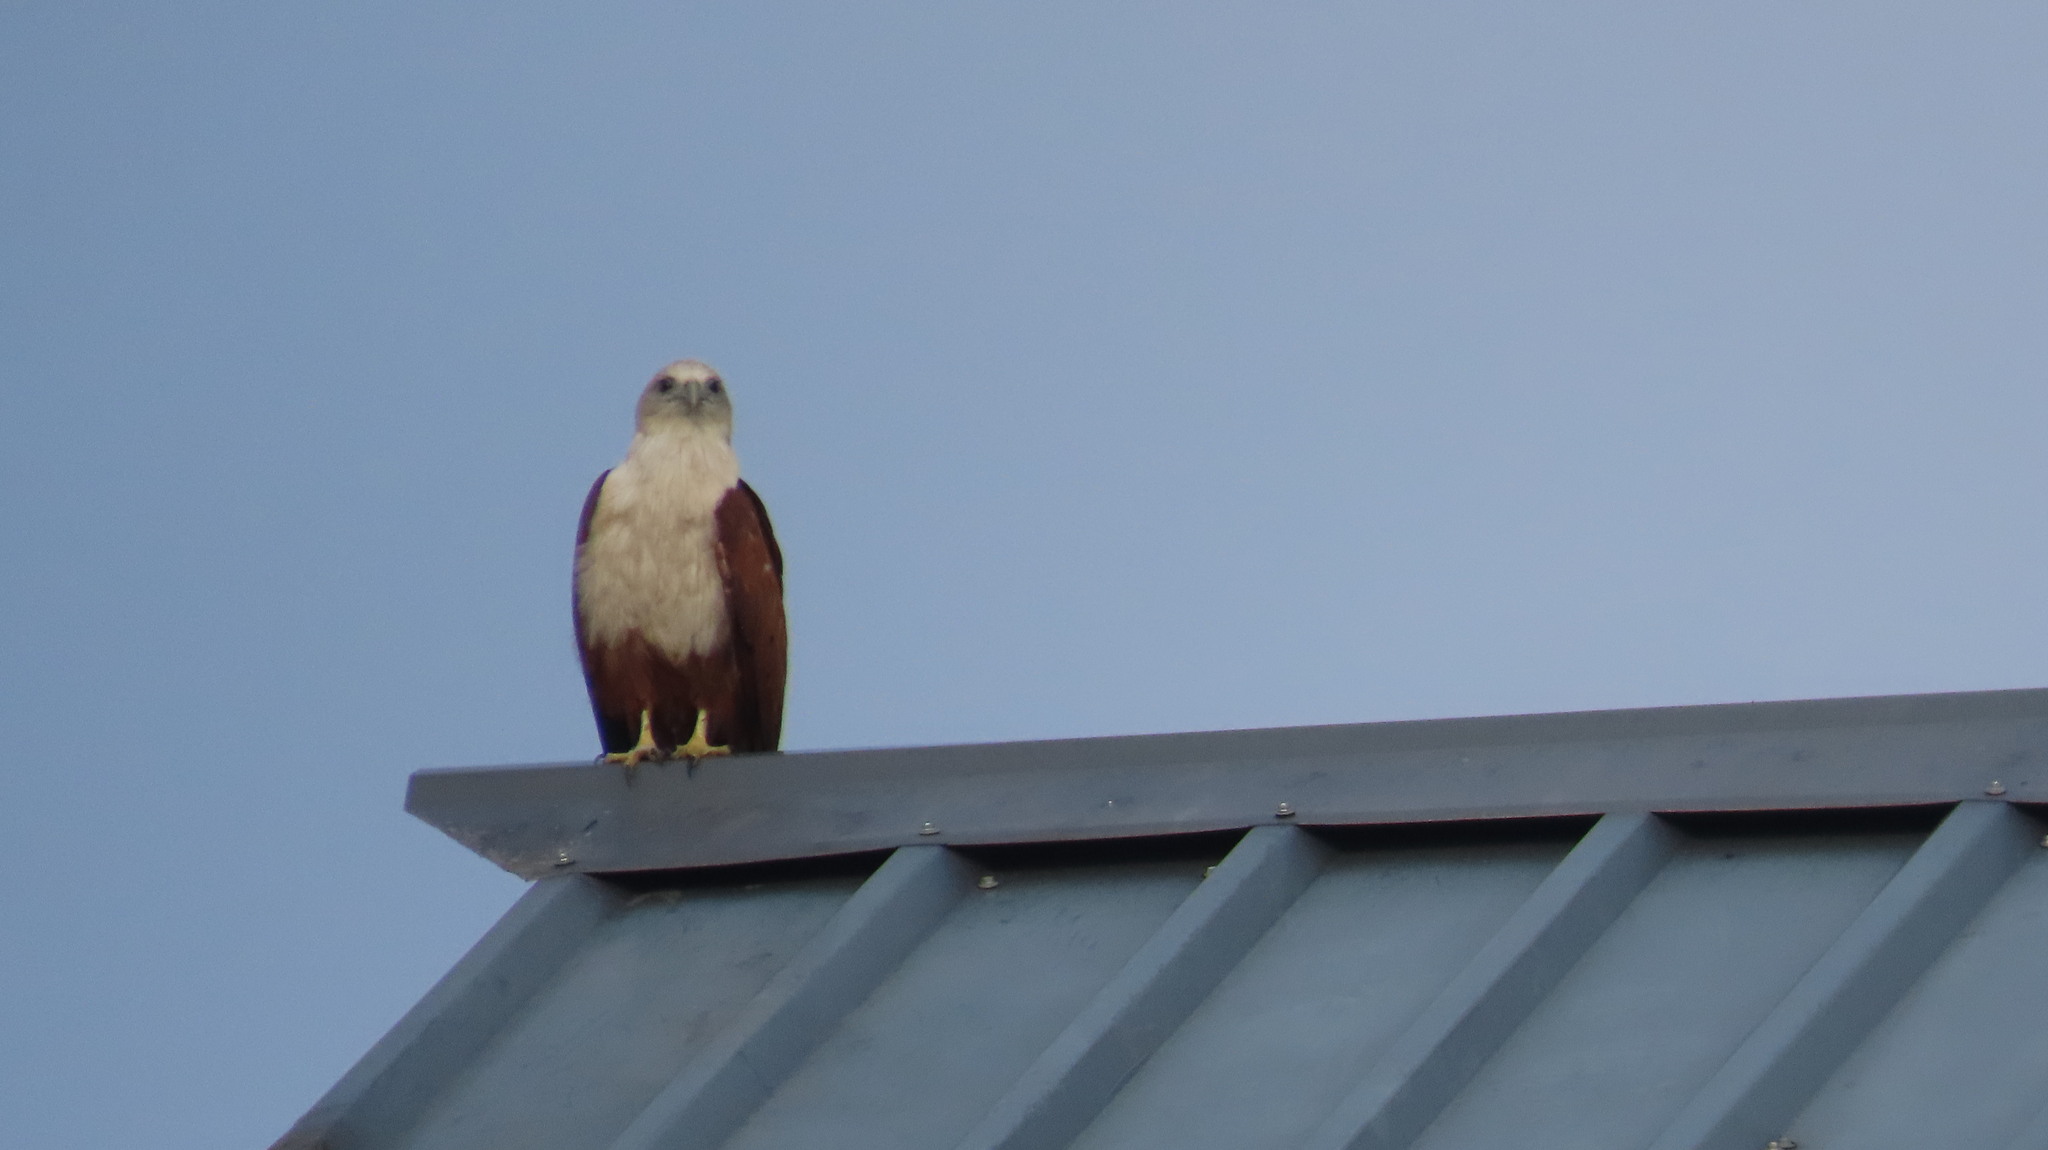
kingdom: Animalia
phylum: Chordata
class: Aves
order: Accipitriformes
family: Accipitridae
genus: Haliastur
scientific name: Haliastur indus
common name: Brahminy kite
